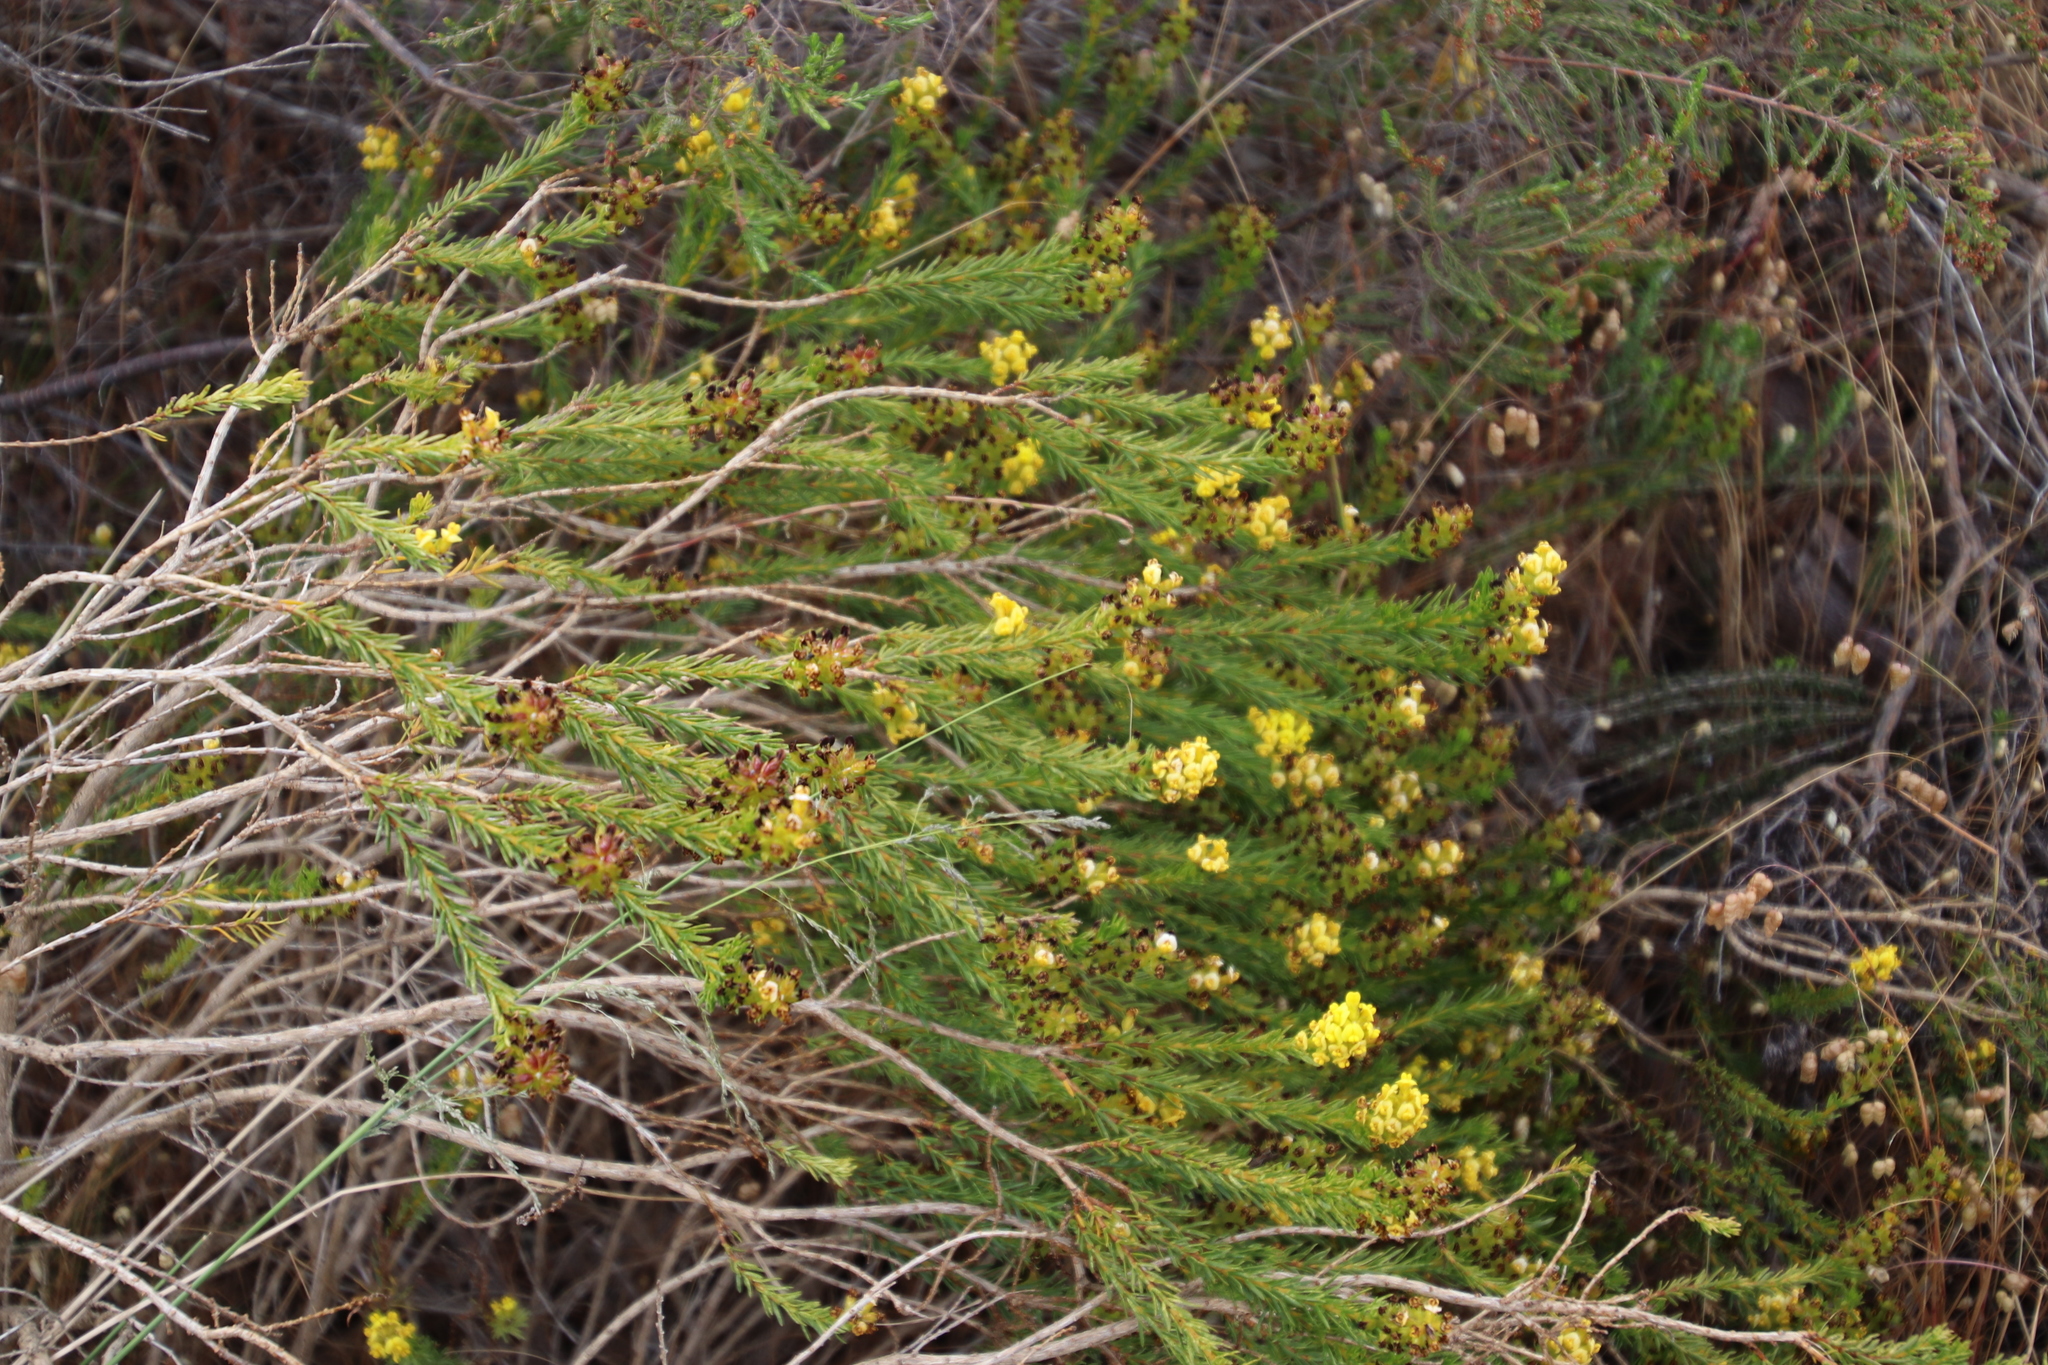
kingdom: Plantae
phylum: Tracheophyta
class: Magnoliopsida
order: Fabales
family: Fabaceae
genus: Aspalathus
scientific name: Aspalathus callosa
